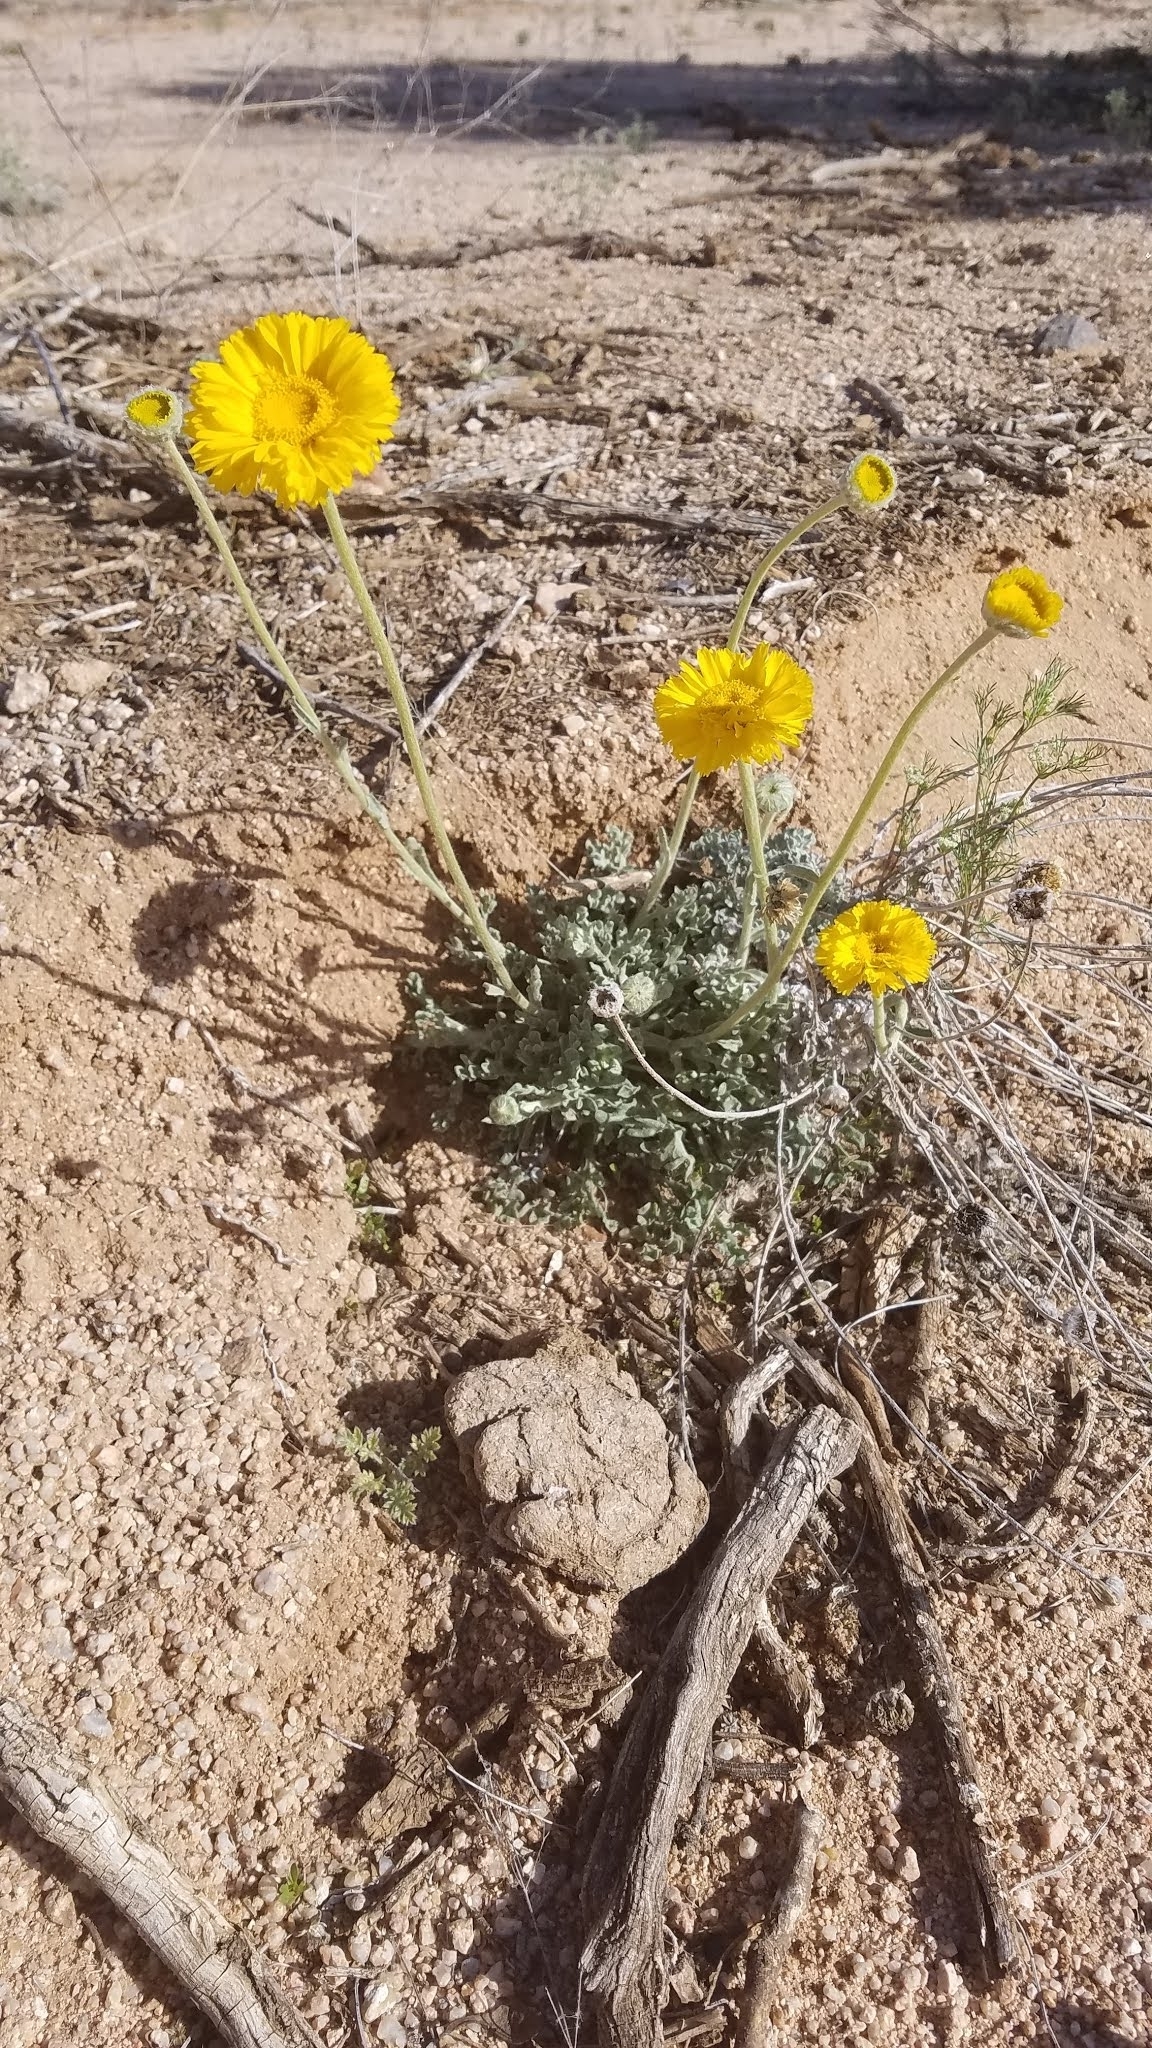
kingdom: Plantae
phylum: Tracheophyta
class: Magnoliopsida
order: Asterales
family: Asteraceae
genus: Baileya
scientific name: Baileya multiradiata
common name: Desert-marigold
